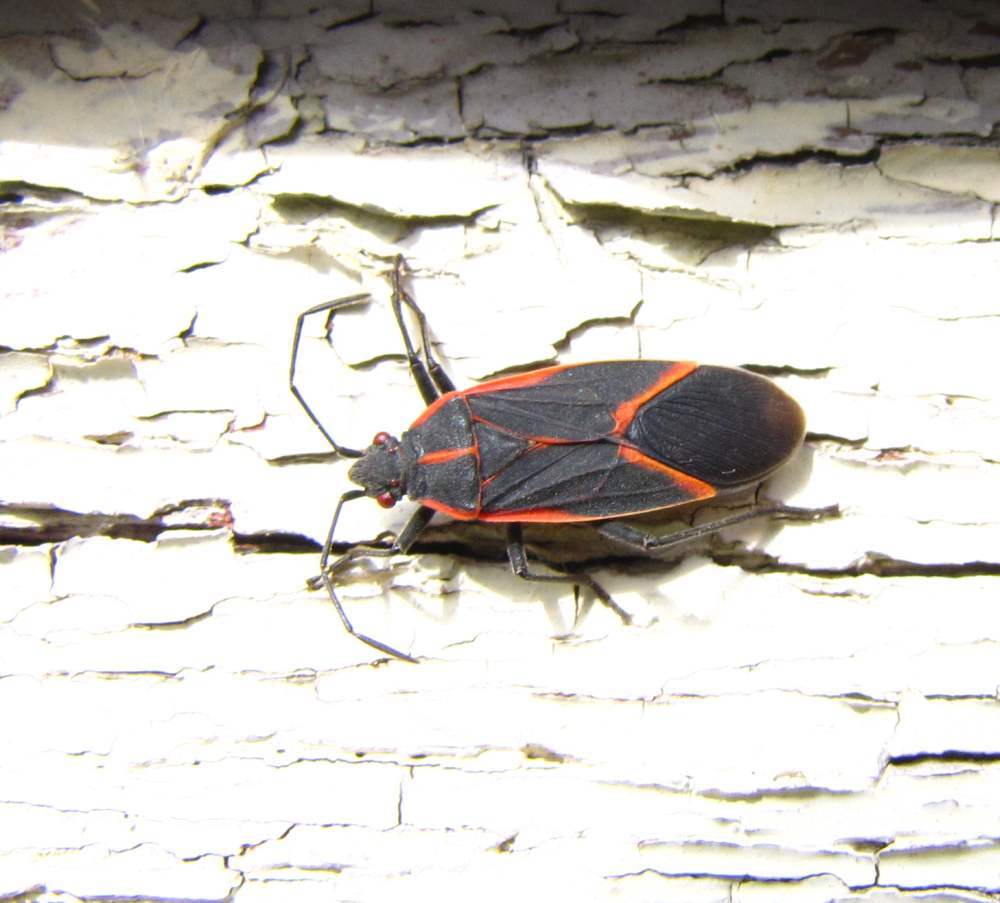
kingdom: Animalia
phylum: Arthropoda
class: Insecta
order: Hemiptera
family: Rhopalidae
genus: Boisea
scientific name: Boisea trivittata
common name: Boxelder bug
